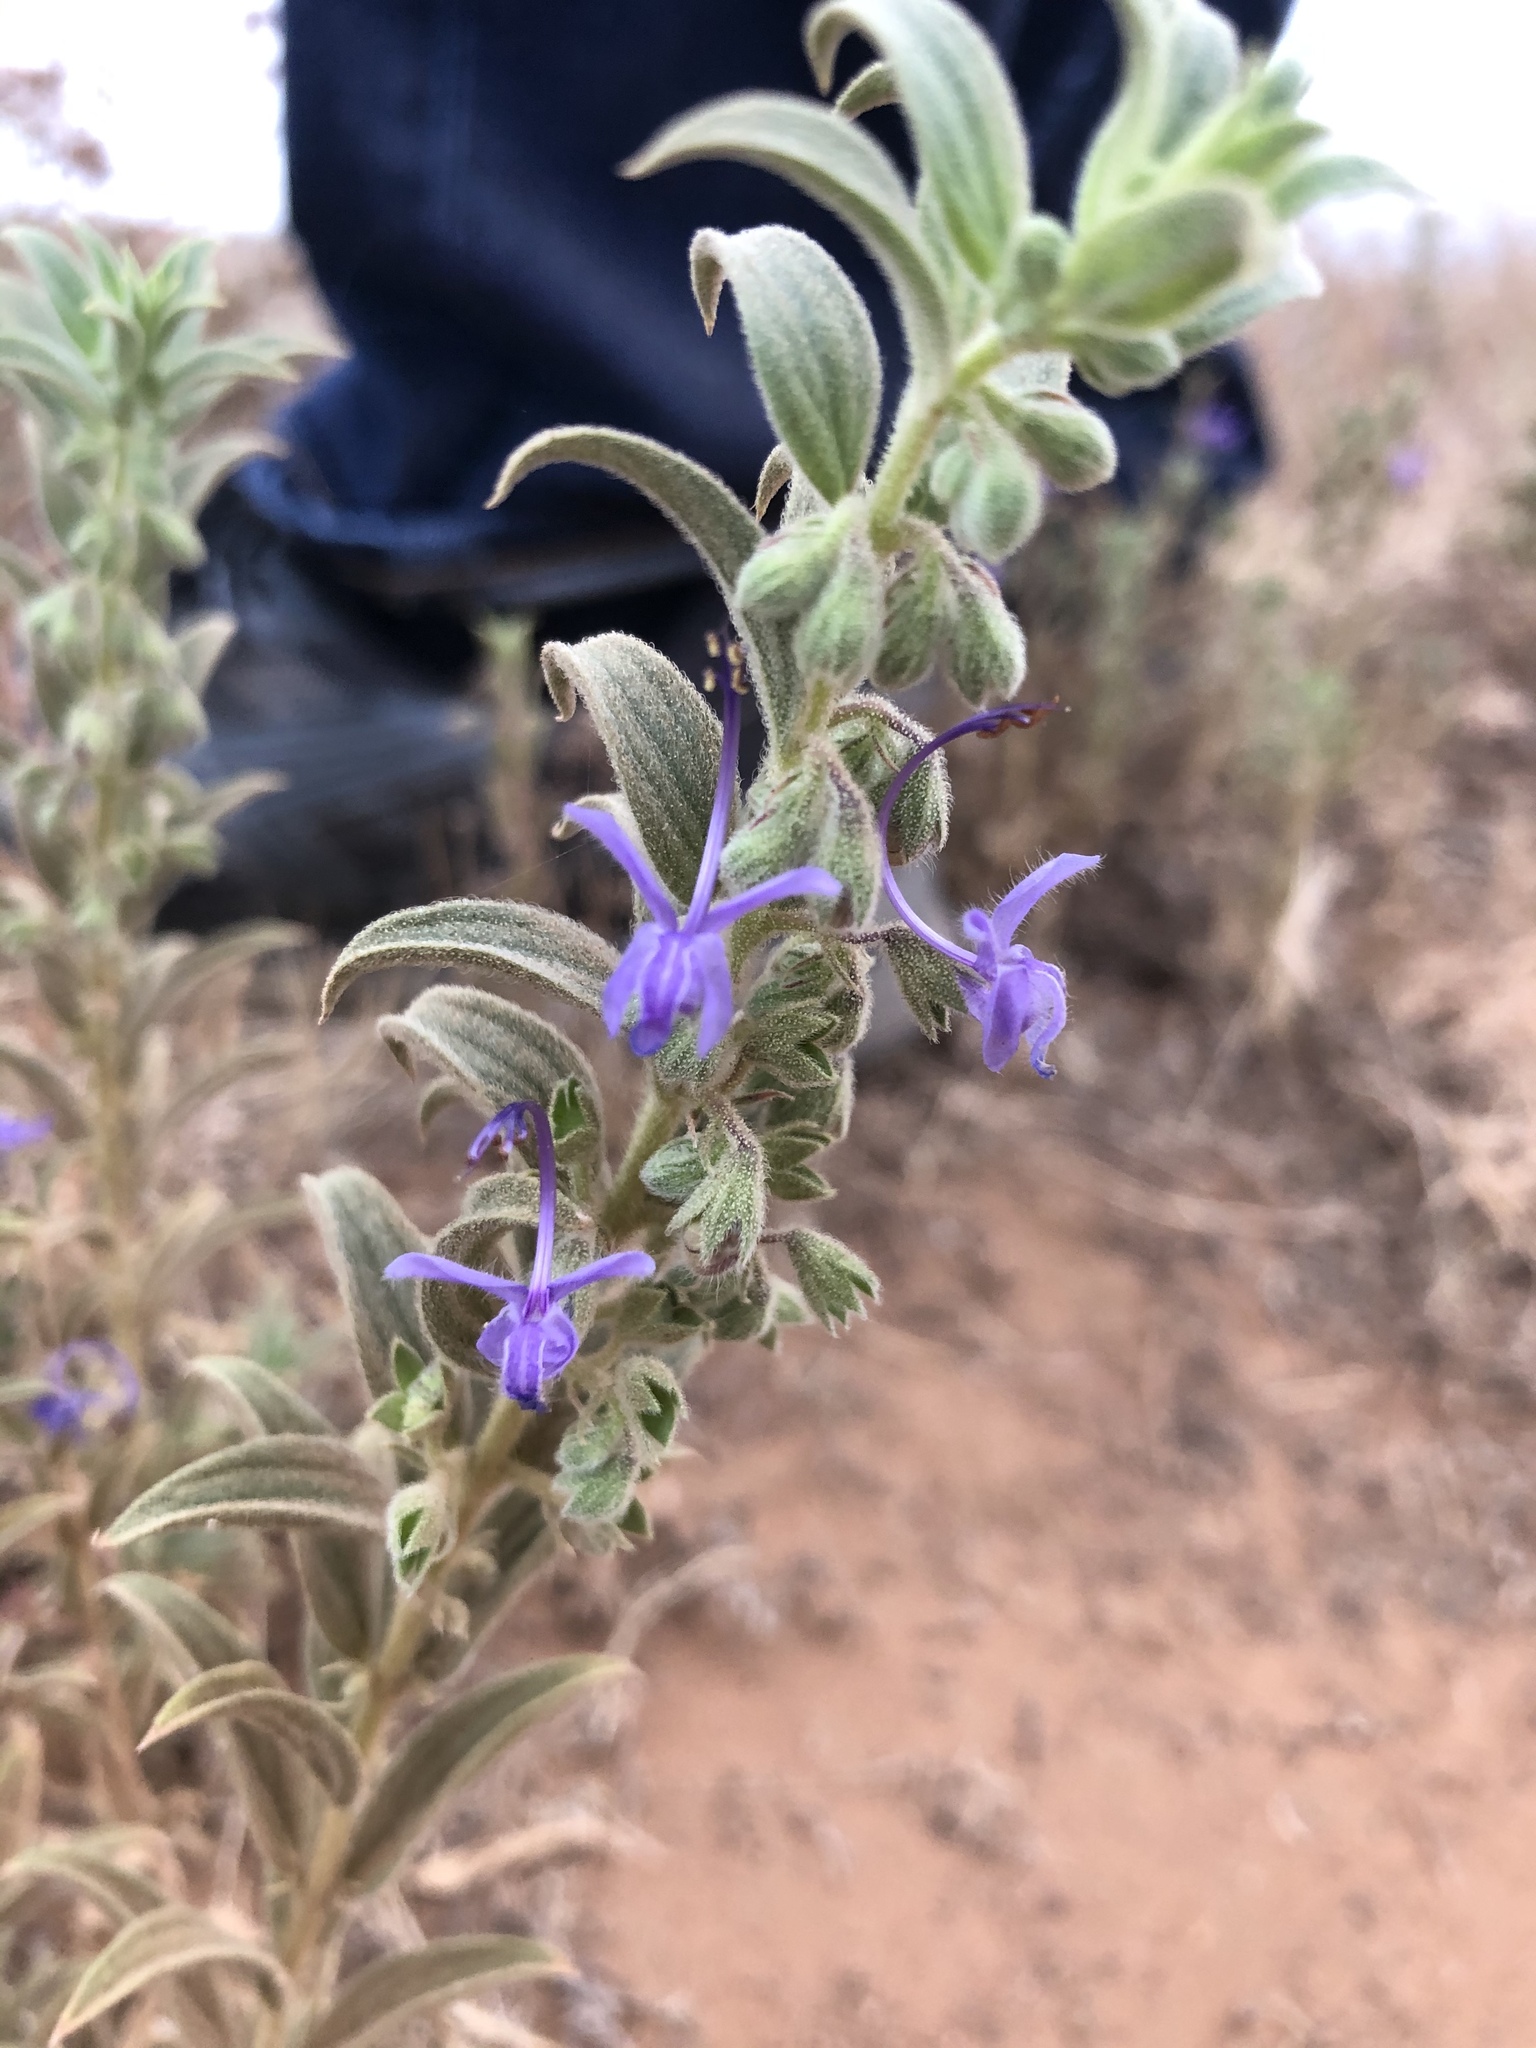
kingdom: Plantae
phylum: Tracheophyta
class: Magnoliopsida
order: Lamiales
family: Lamiaceae
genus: Trichostema
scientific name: Trichostema lanceolatum
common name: Vinegar-weed
